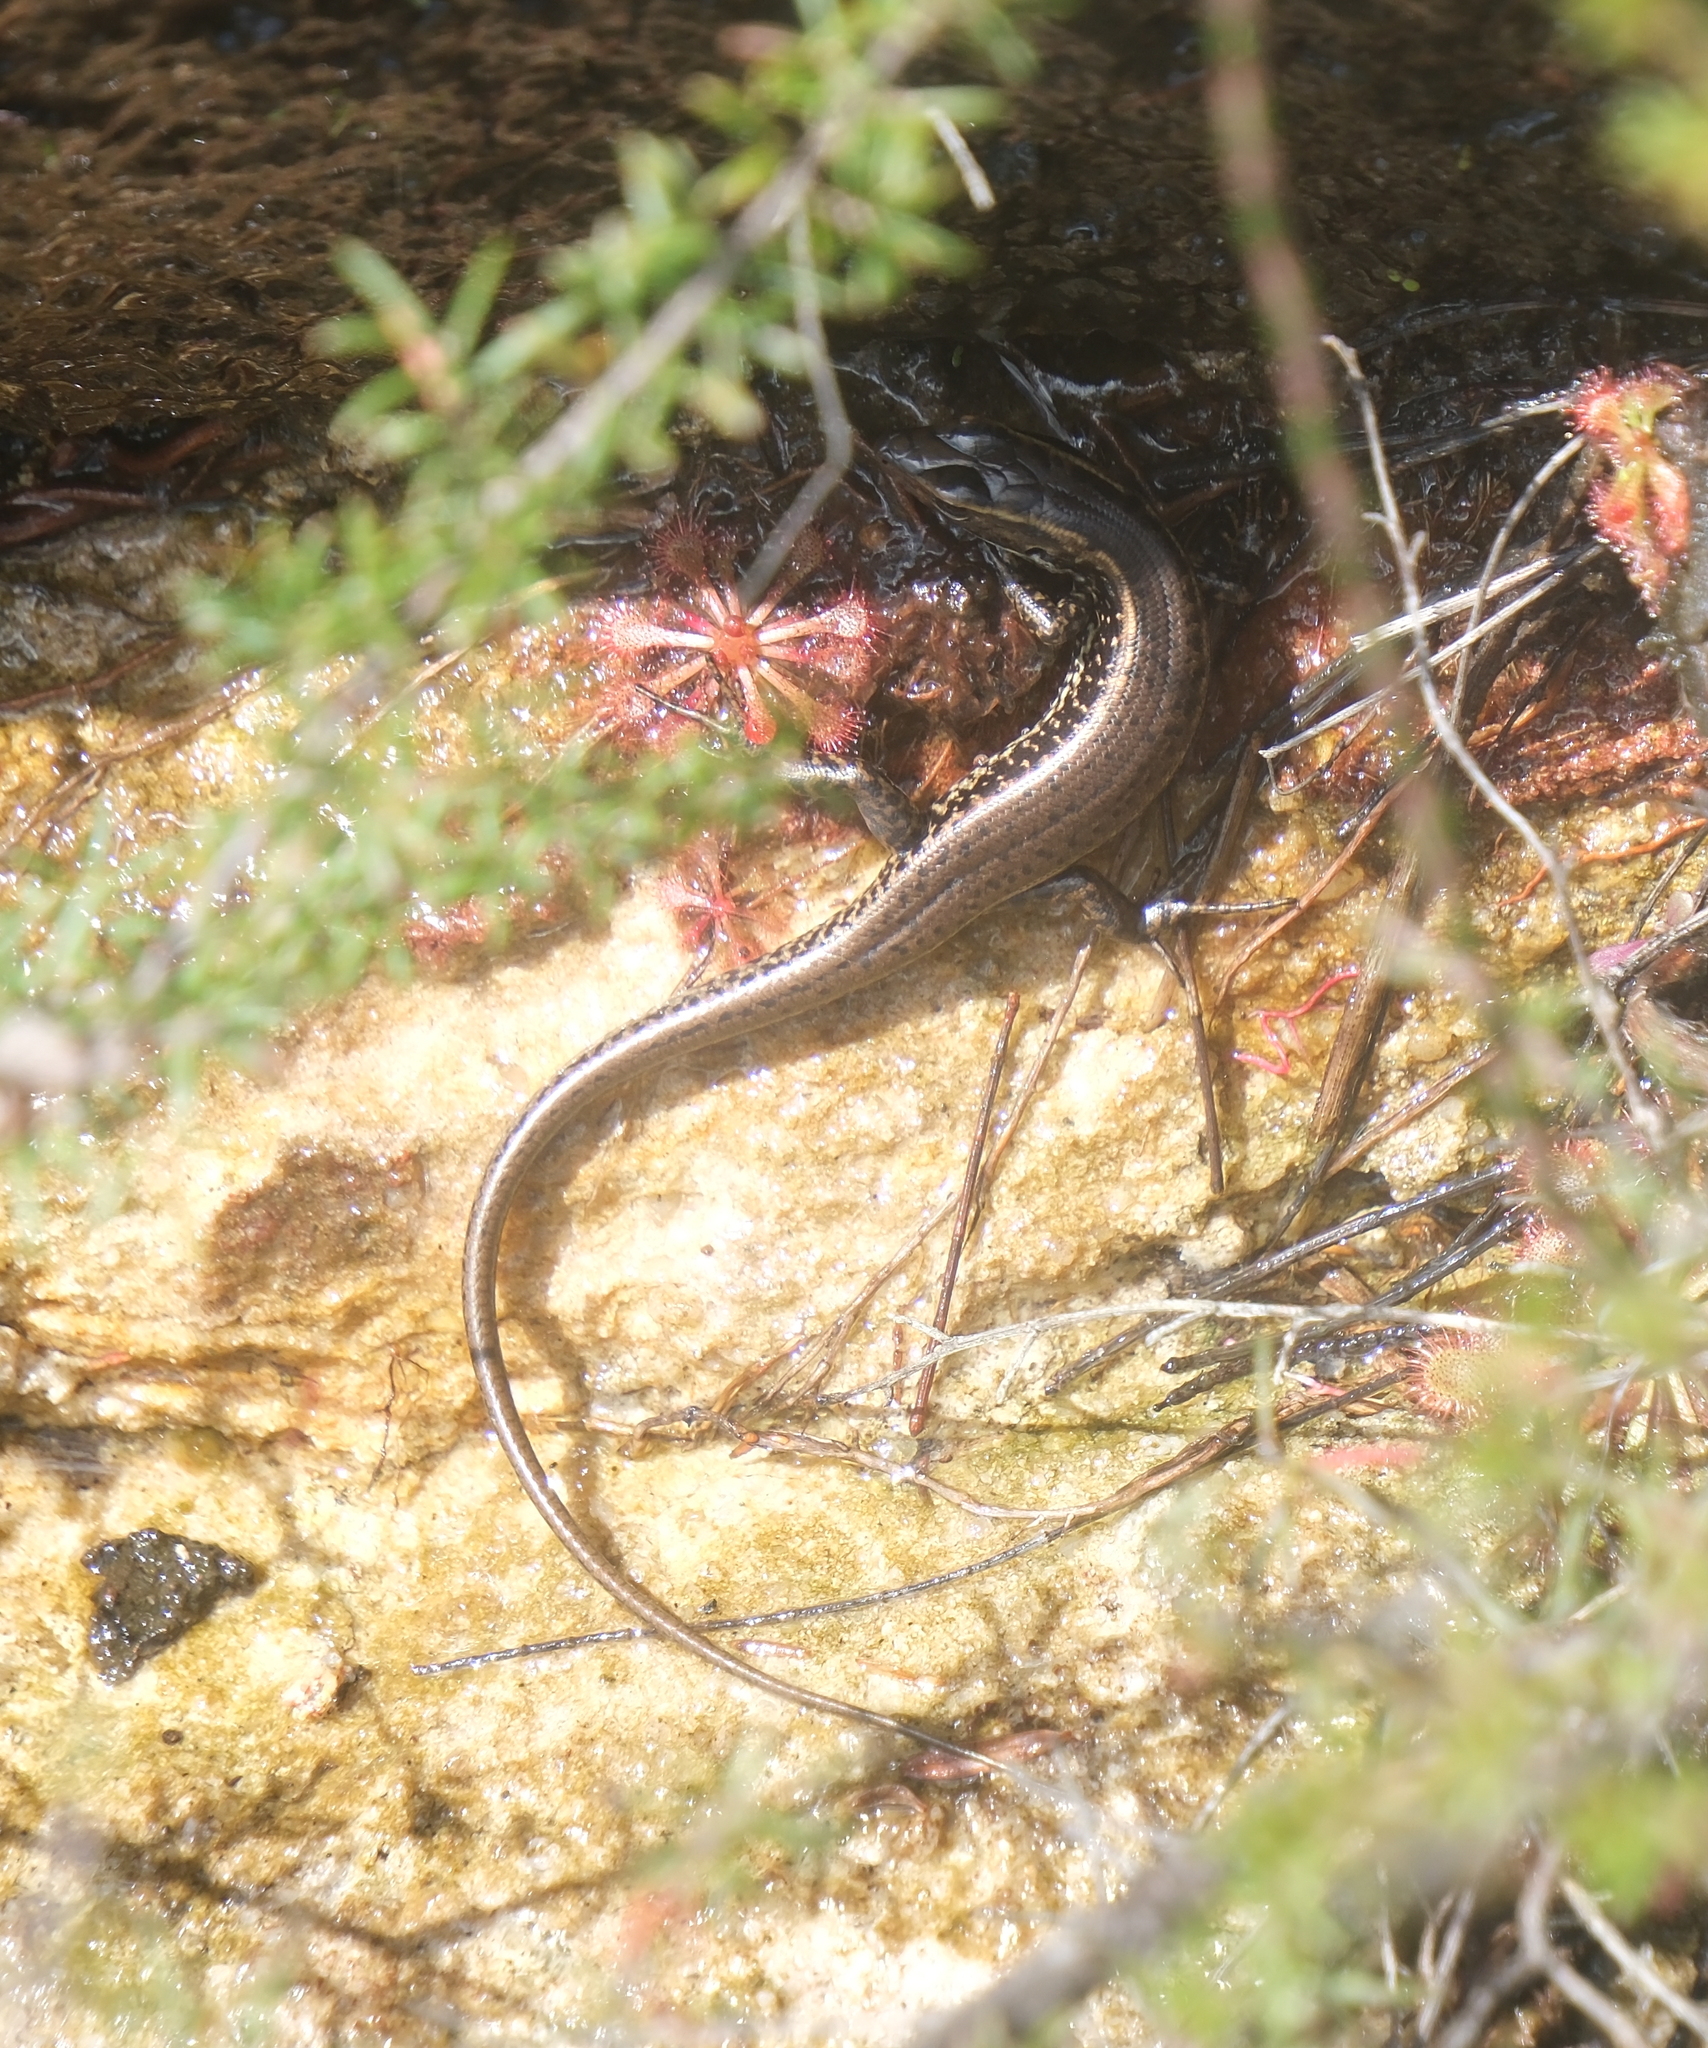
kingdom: Animalia
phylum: Chordata
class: Squamata
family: Scincidae
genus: Eulamprus
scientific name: Eulamprus quoyii
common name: Eastern water skink
